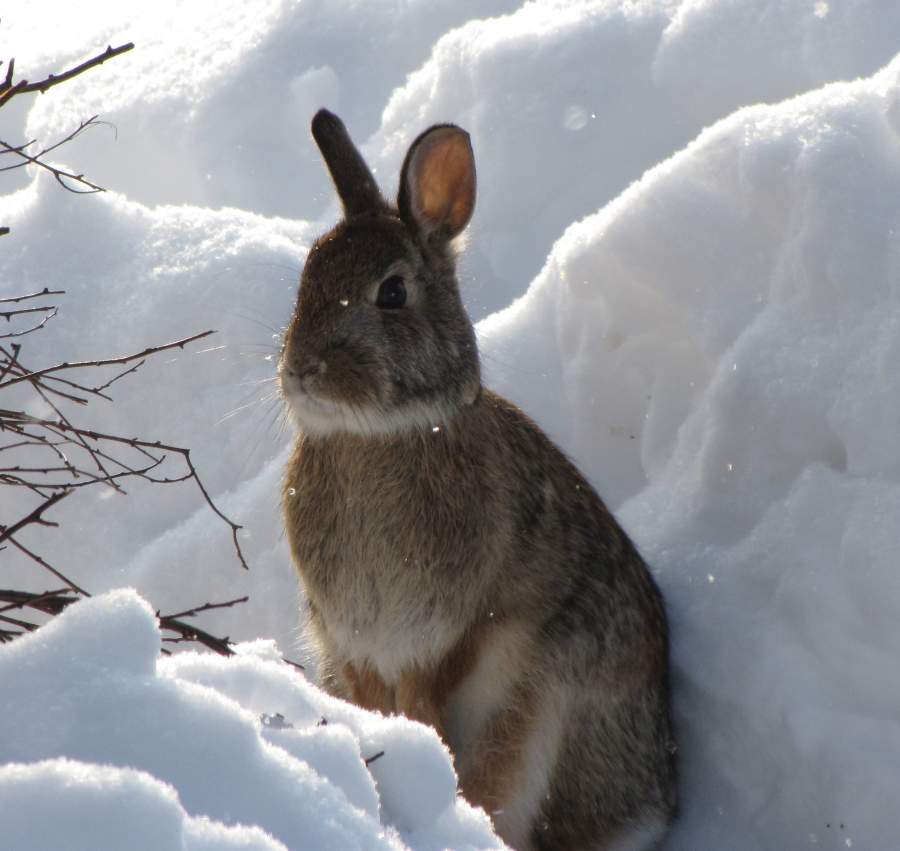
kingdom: Animalia
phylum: Chordata
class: Mammalia
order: Lagomorpha
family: Leporidae
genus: Sylvilagus
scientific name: Sylvilagus floridanus
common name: Eastern cottontail
